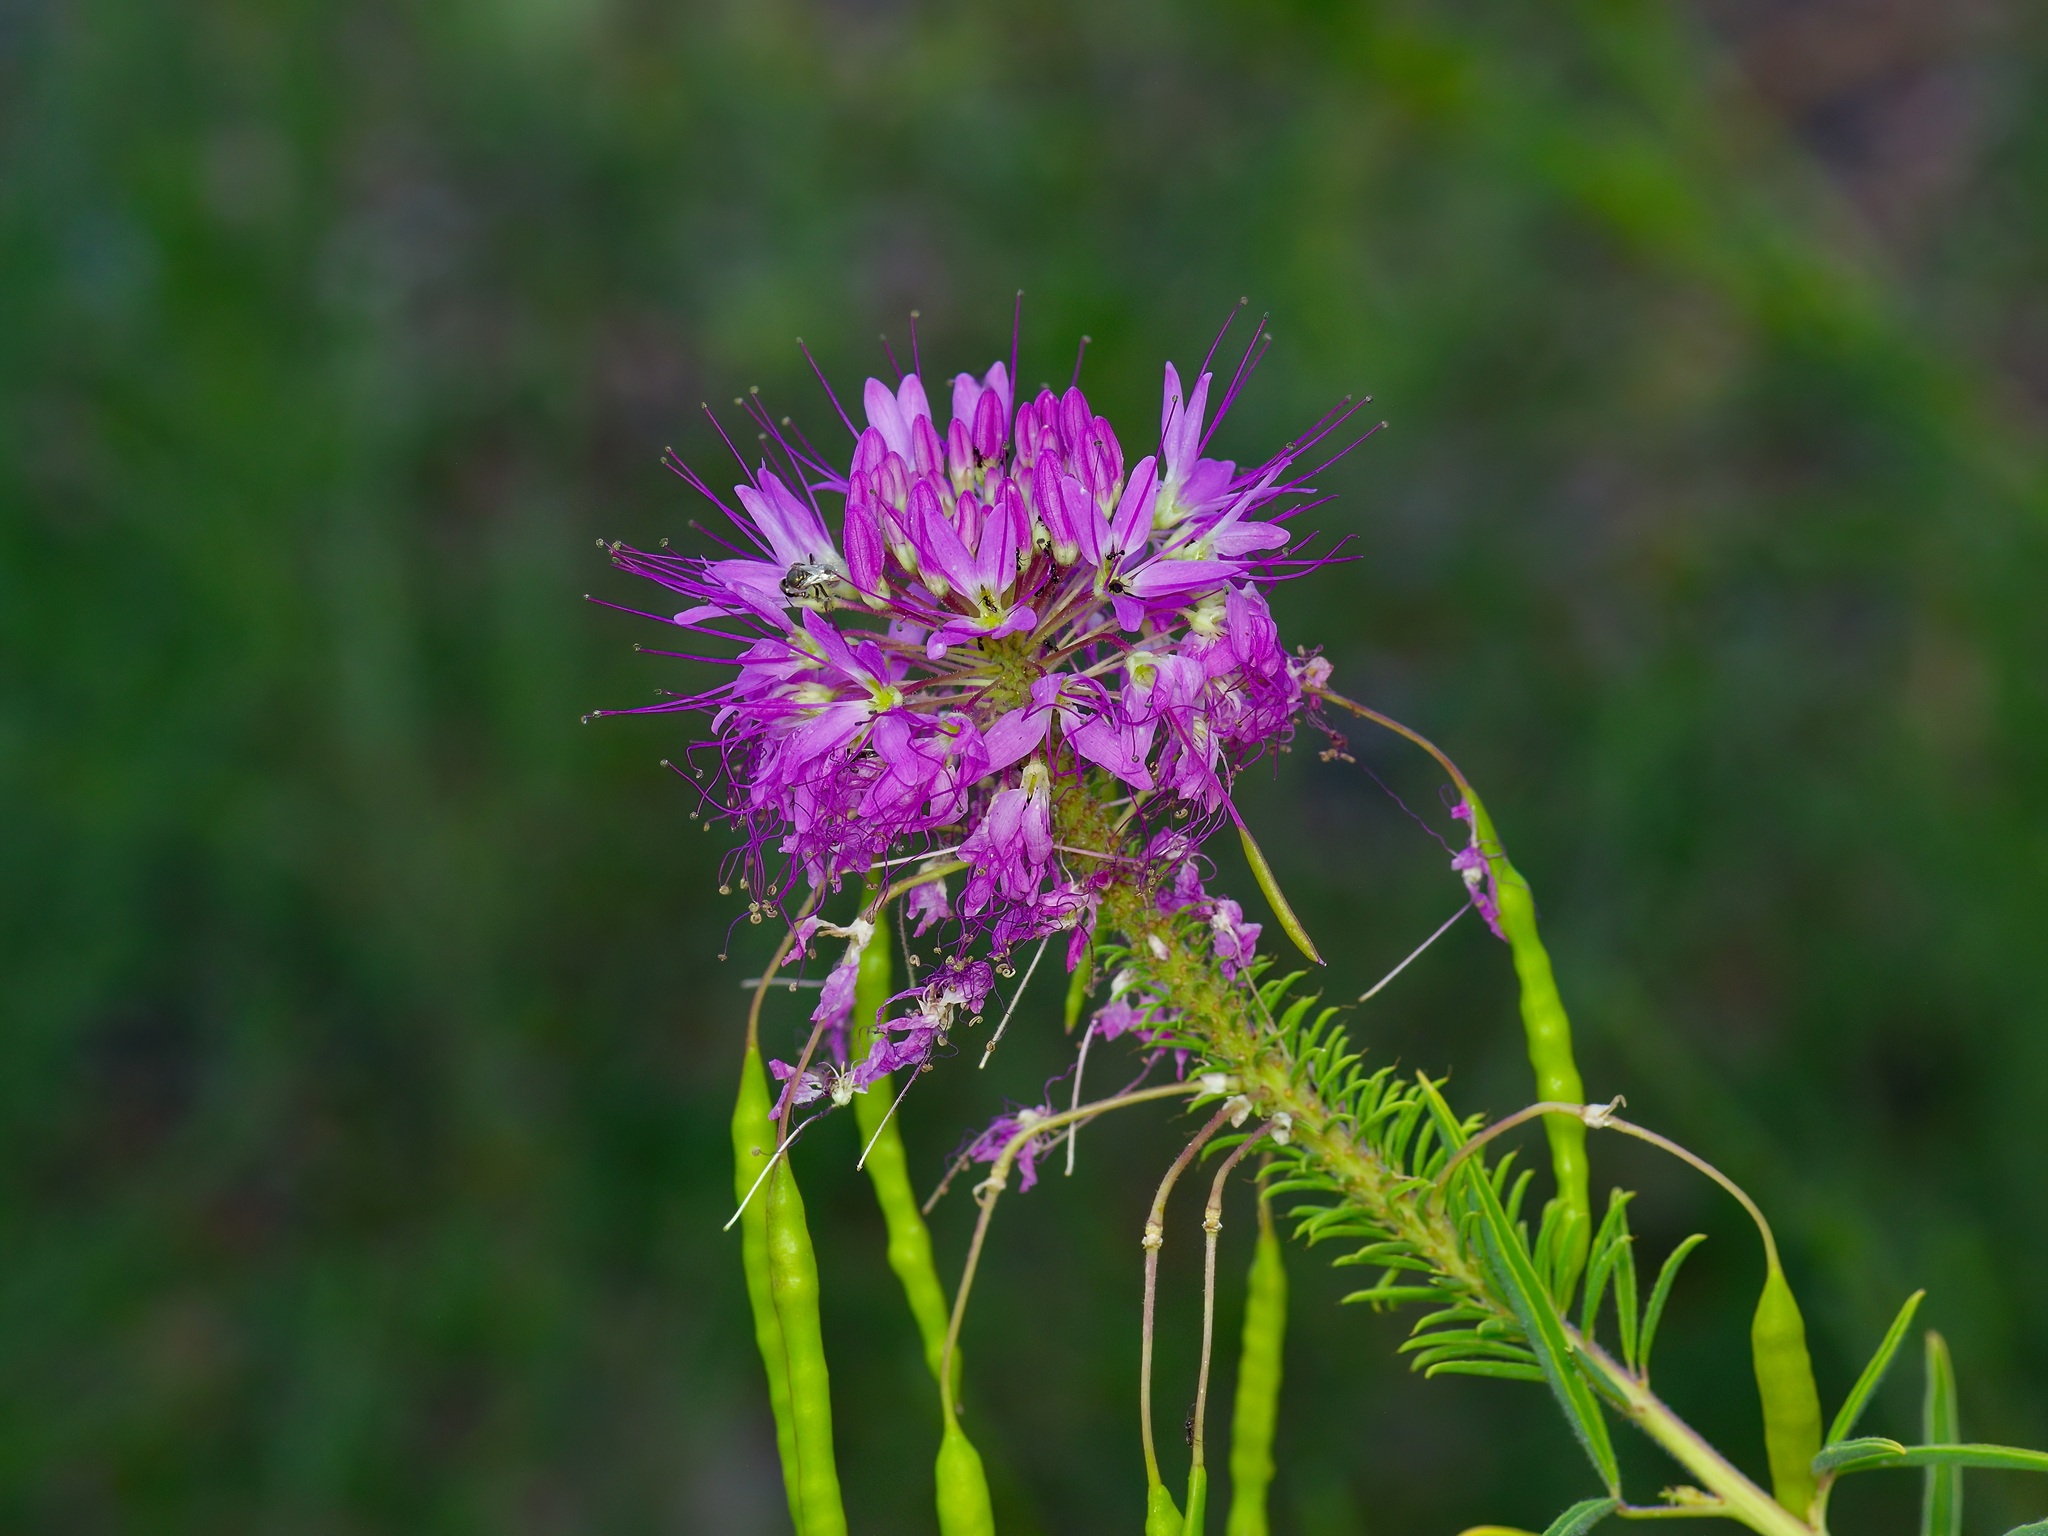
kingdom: Plantae
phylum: Tracheophyta
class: Magnoliopsida
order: Brassicales
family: Cleomaceae
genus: Cleomella
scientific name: Cleomella serrulata
